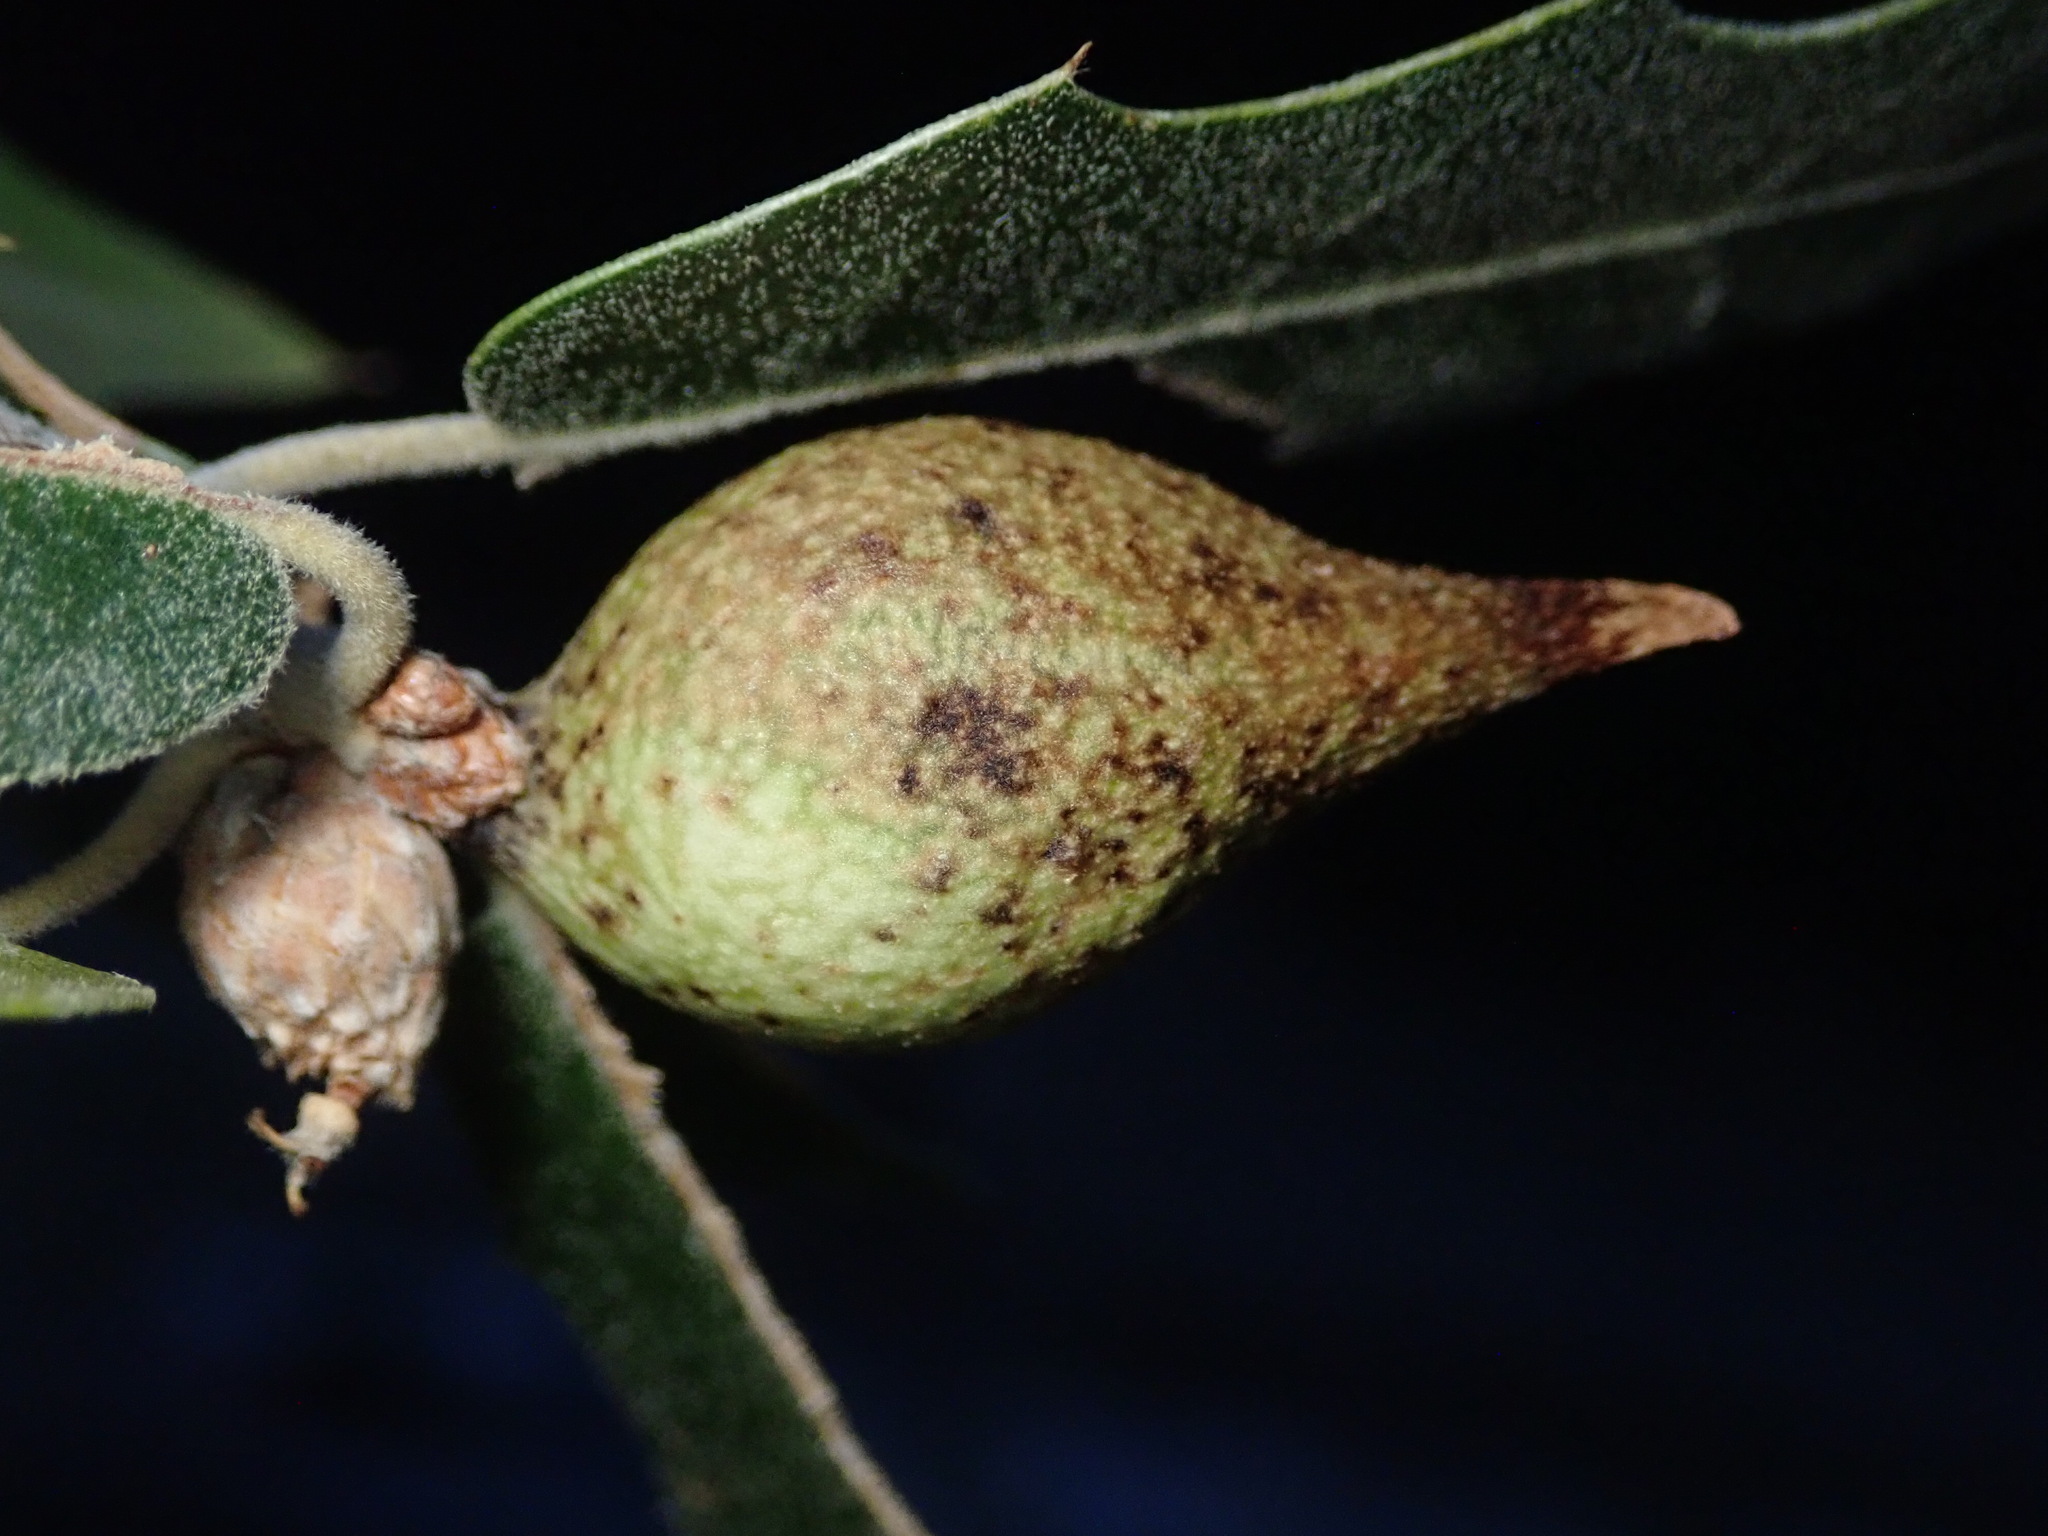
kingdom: Animalia
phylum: Arthropoda
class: Insecta
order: Hymenoptera
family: Cynipidae
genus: Amphibolips
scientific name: Amphibolips fusus
